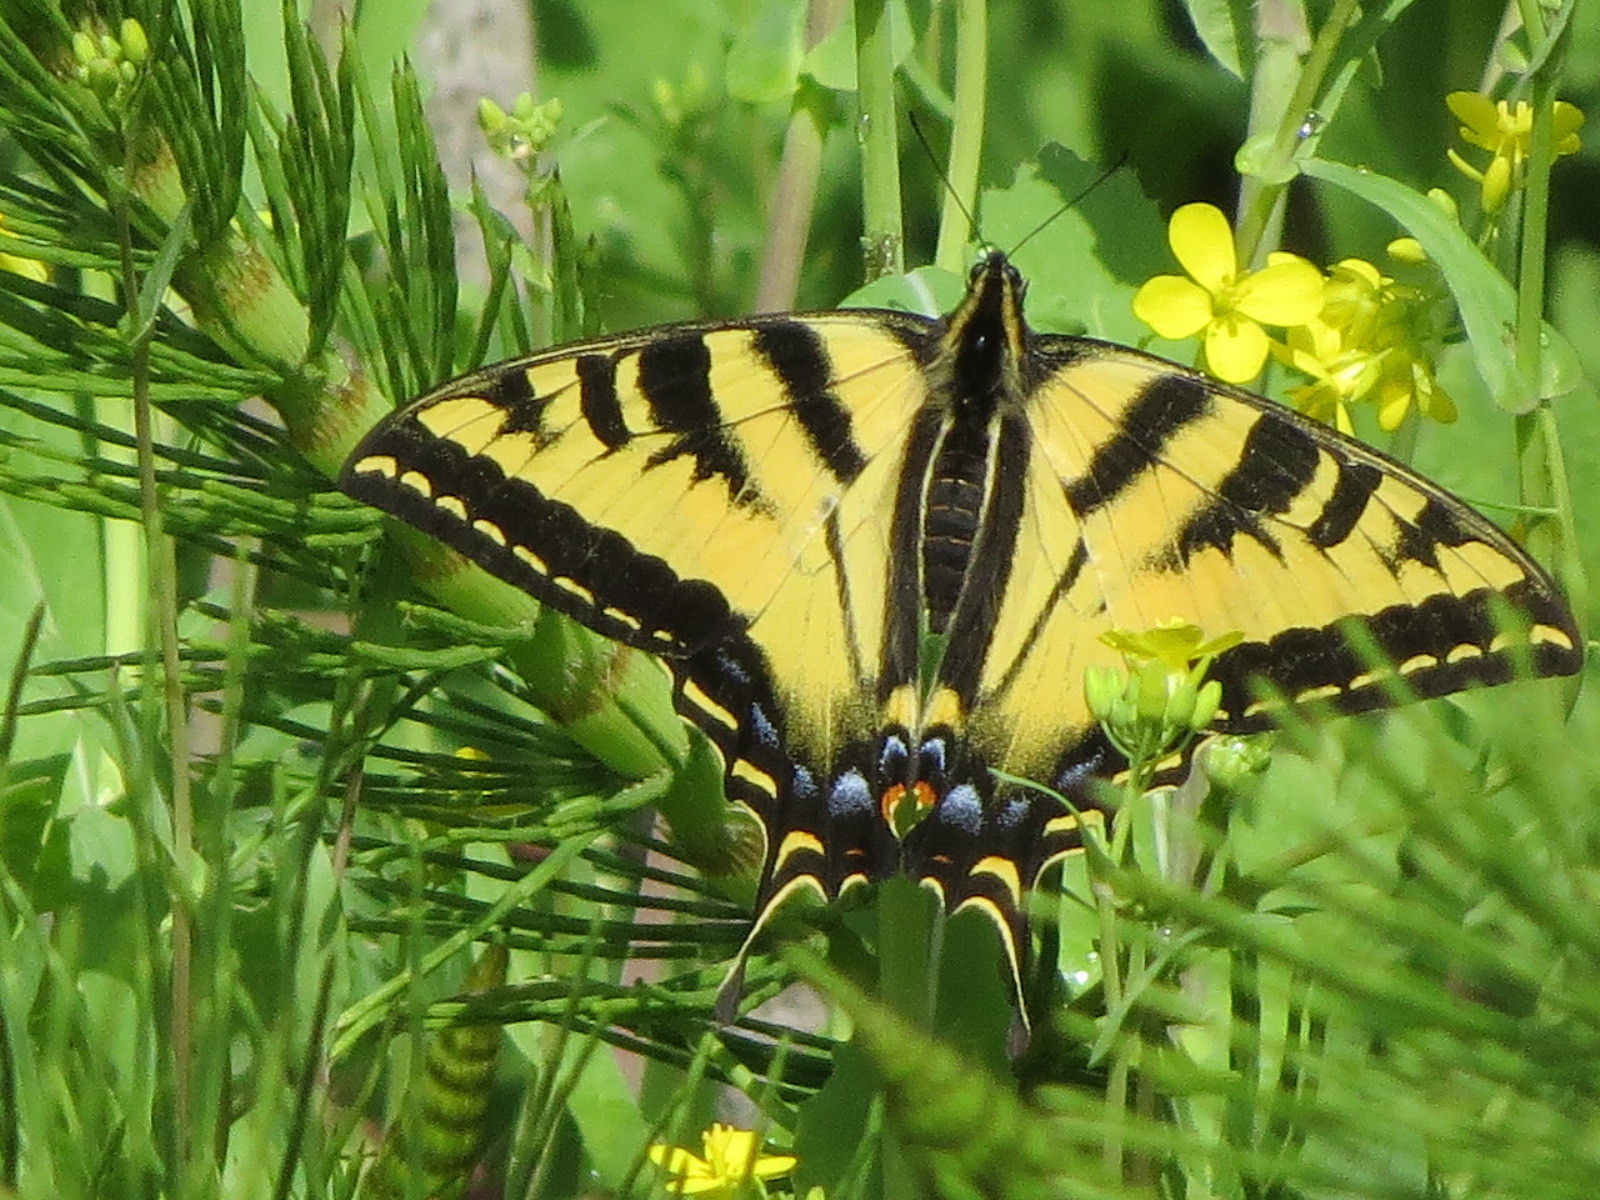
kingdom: Animalia
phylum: Arthropoda
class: Insecta
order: Lepidoptera
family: Papilionidae
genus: Papilio
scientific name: Papilio rutulus
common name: Western tiger swallowtail
